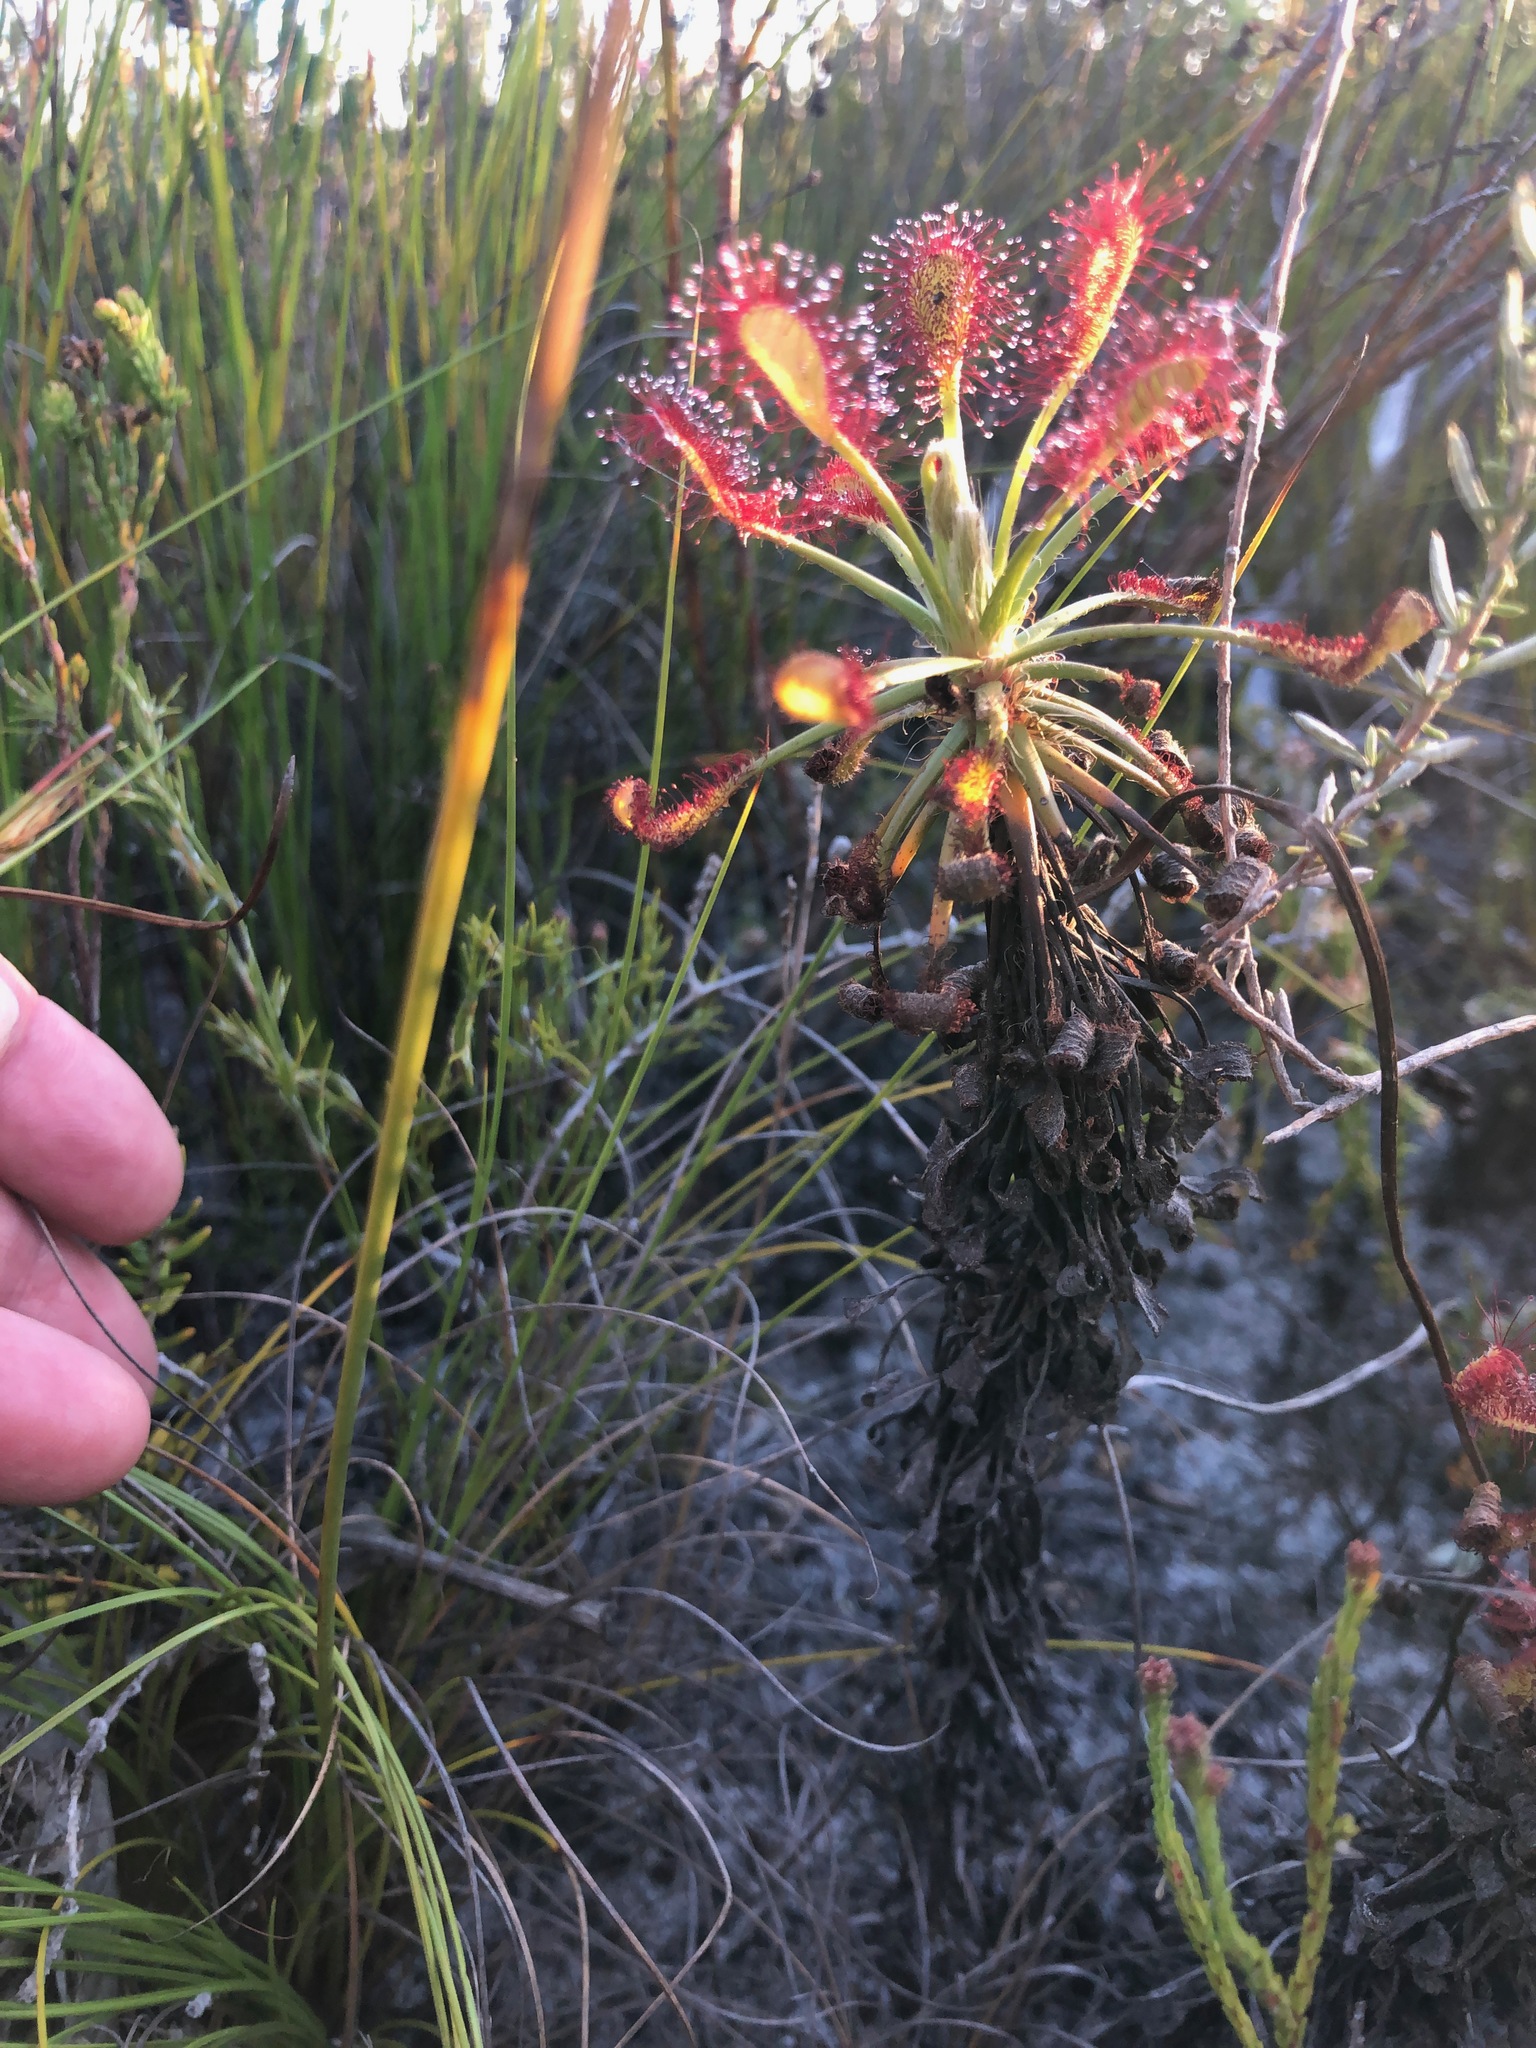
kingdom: Plantae
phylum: Tracheophyta
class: Magnoliopsida
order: Caryophyllales
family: Droseraceae
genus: Drosera
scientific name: Drosera glabripes
